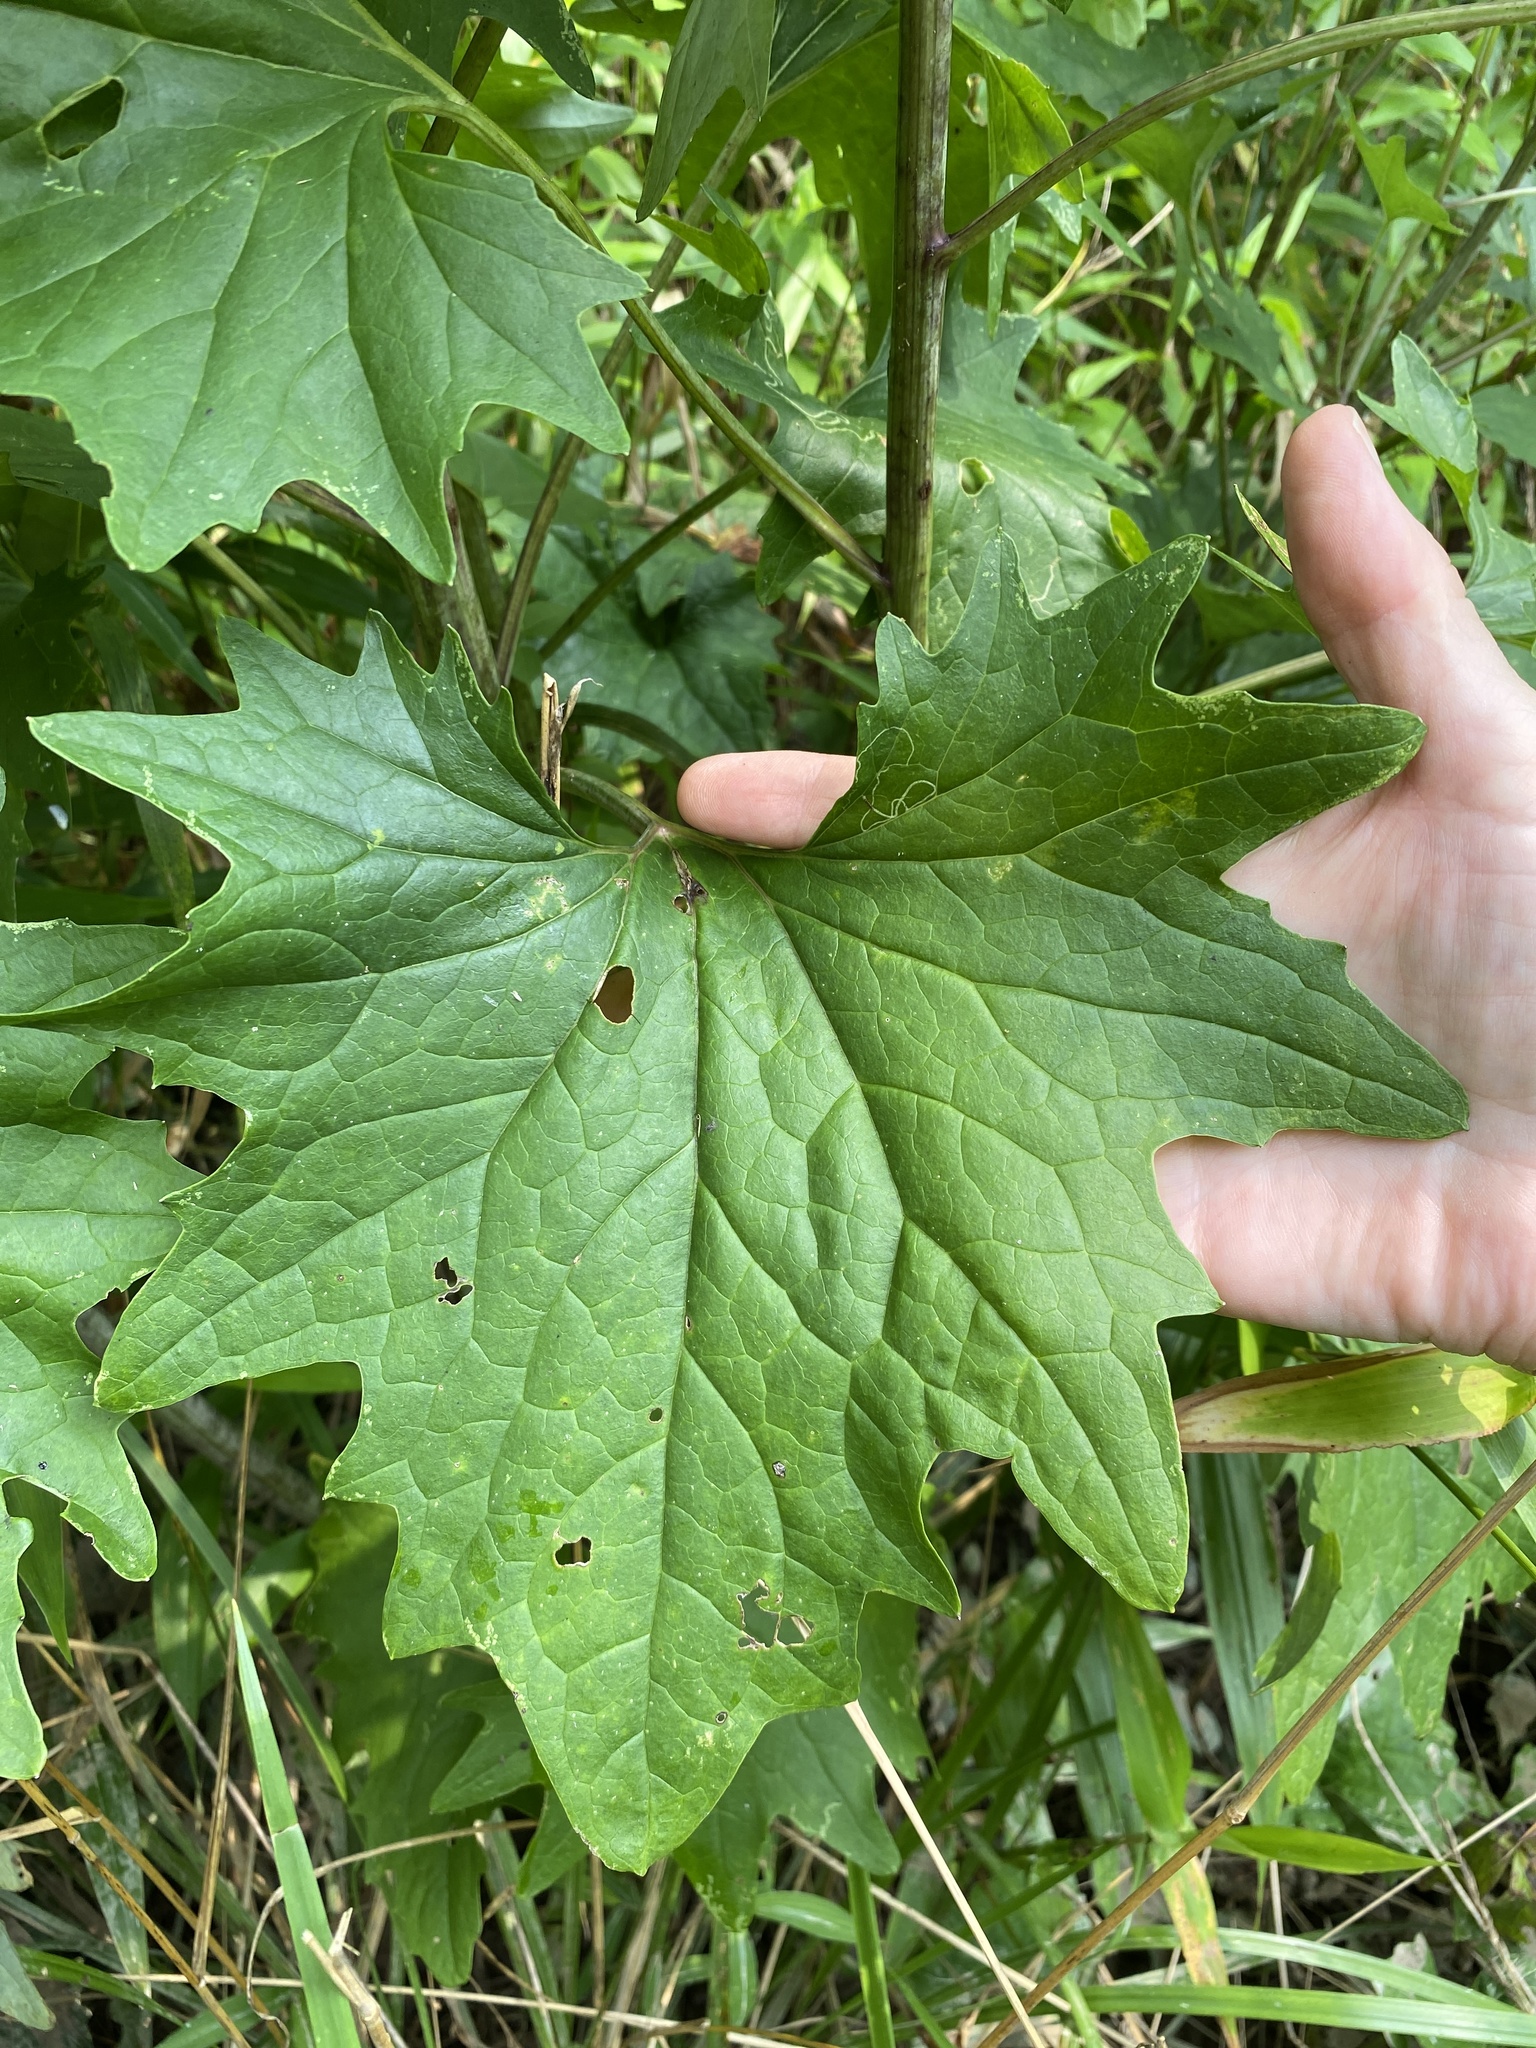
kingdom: Plantae
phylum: Tracheophyta
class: Magnoliopsida
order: Asterales
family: Asteraceae
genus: Arnoglossum
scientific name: Arnoglossum atriplicifolium
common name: Pale indian-plantain
